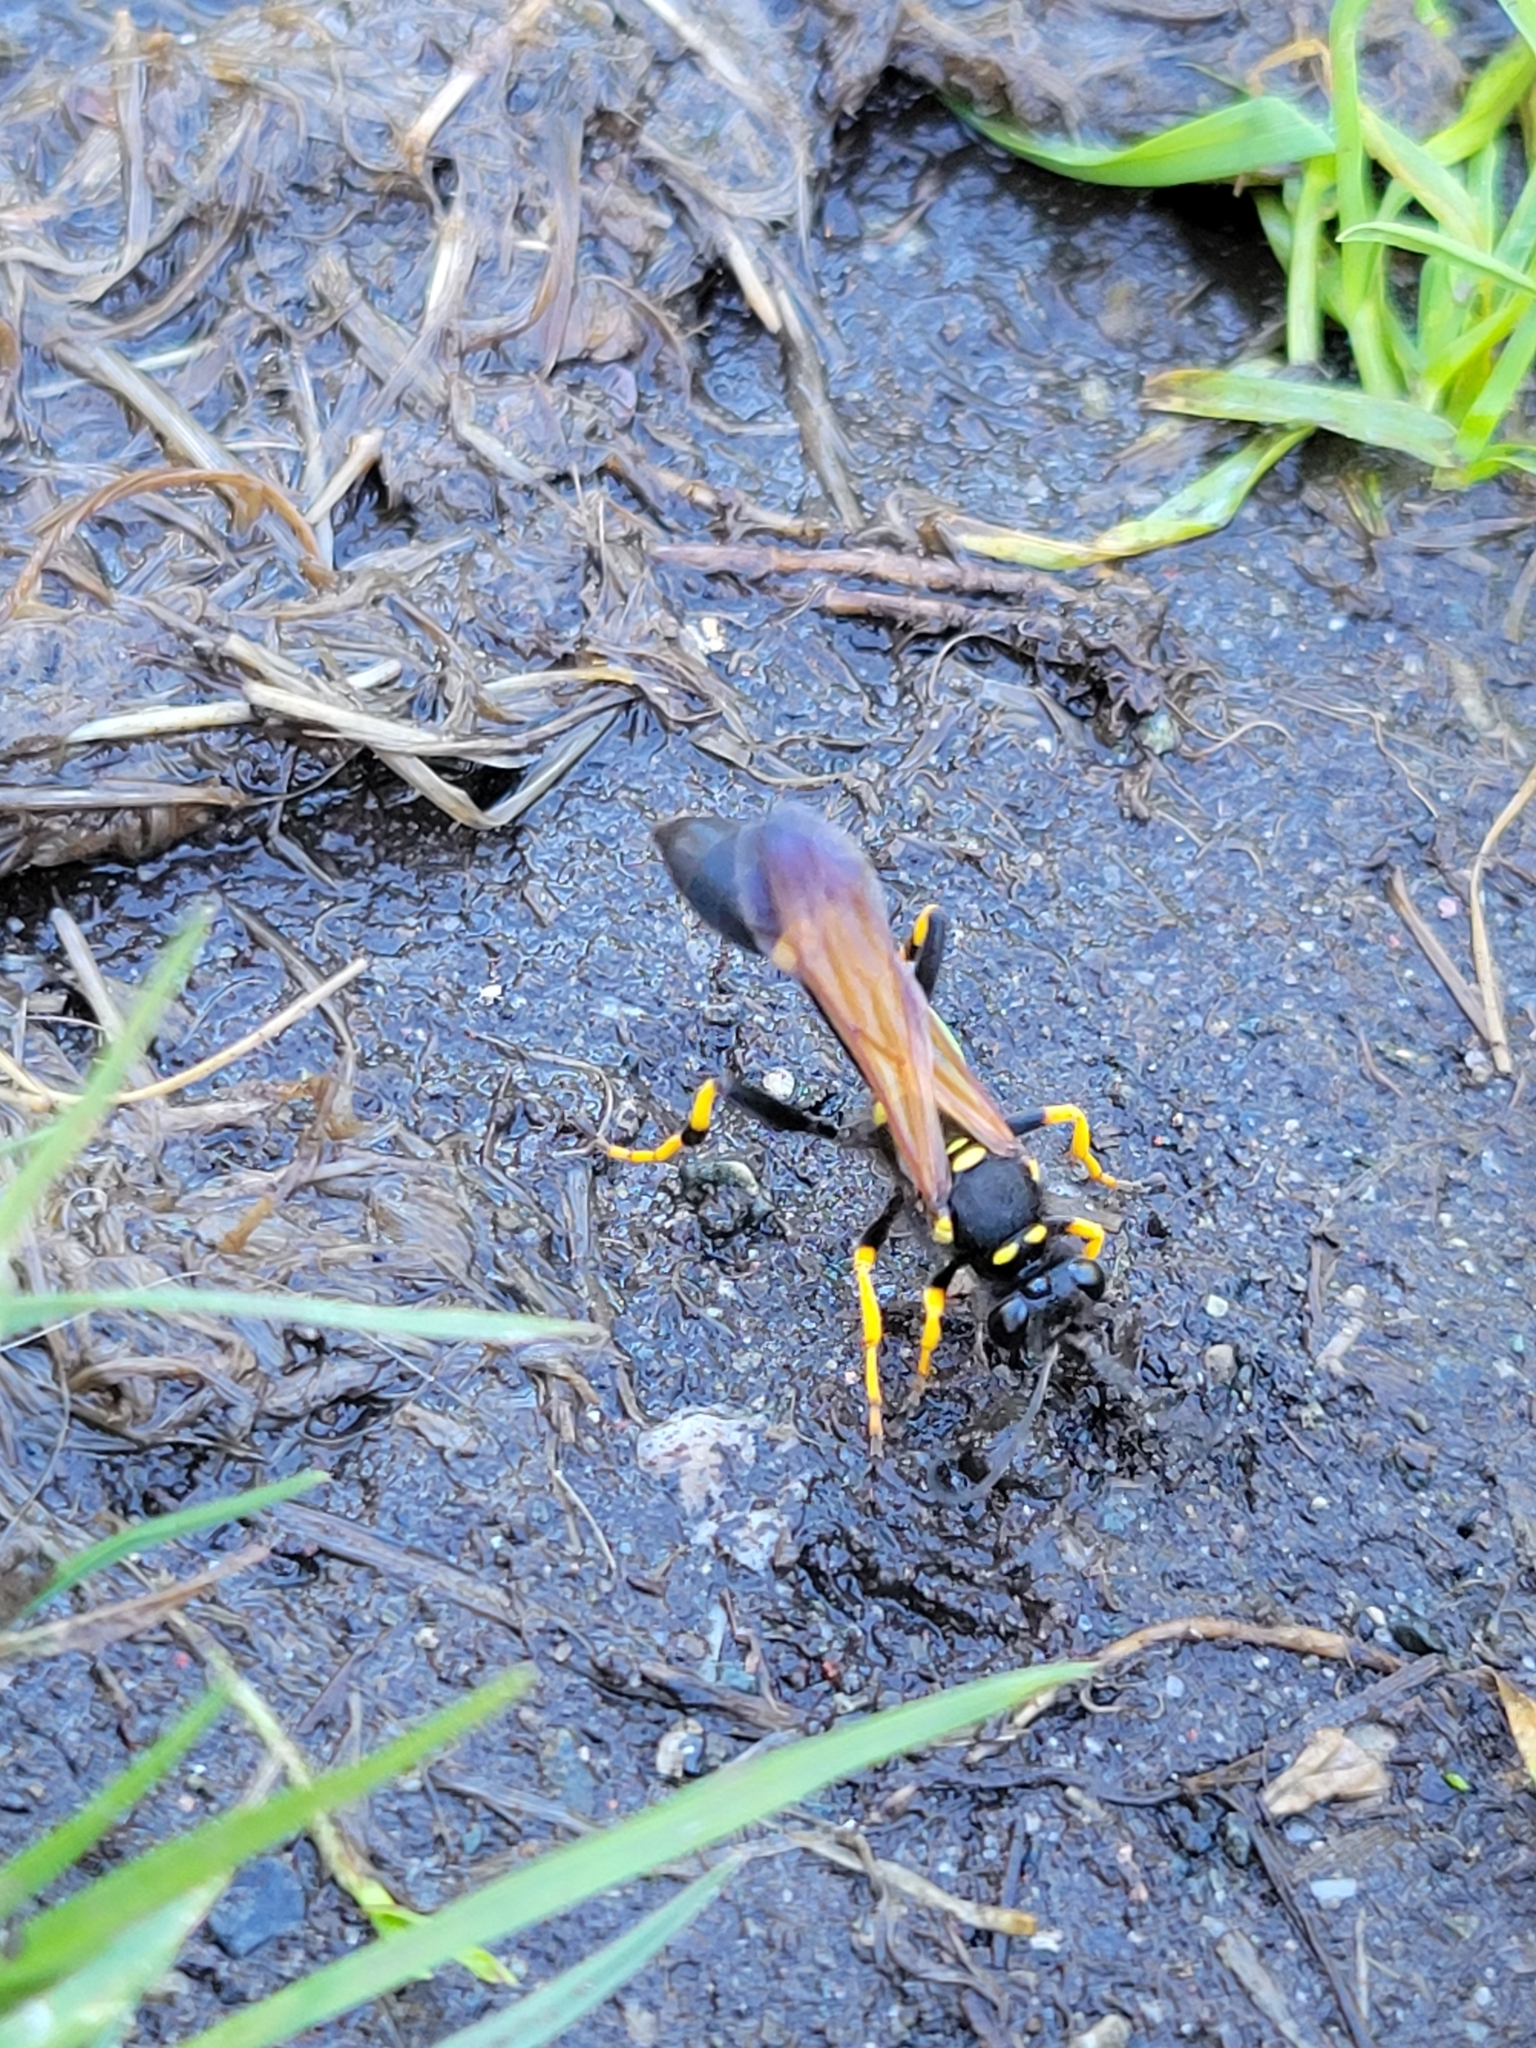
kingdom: Animalia
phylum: Arthropoda
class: Insecta
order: Hymenoptera
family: Sphecidae
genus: Sceliphron
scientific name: Sceliphron caementarium
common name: Mud dauber
